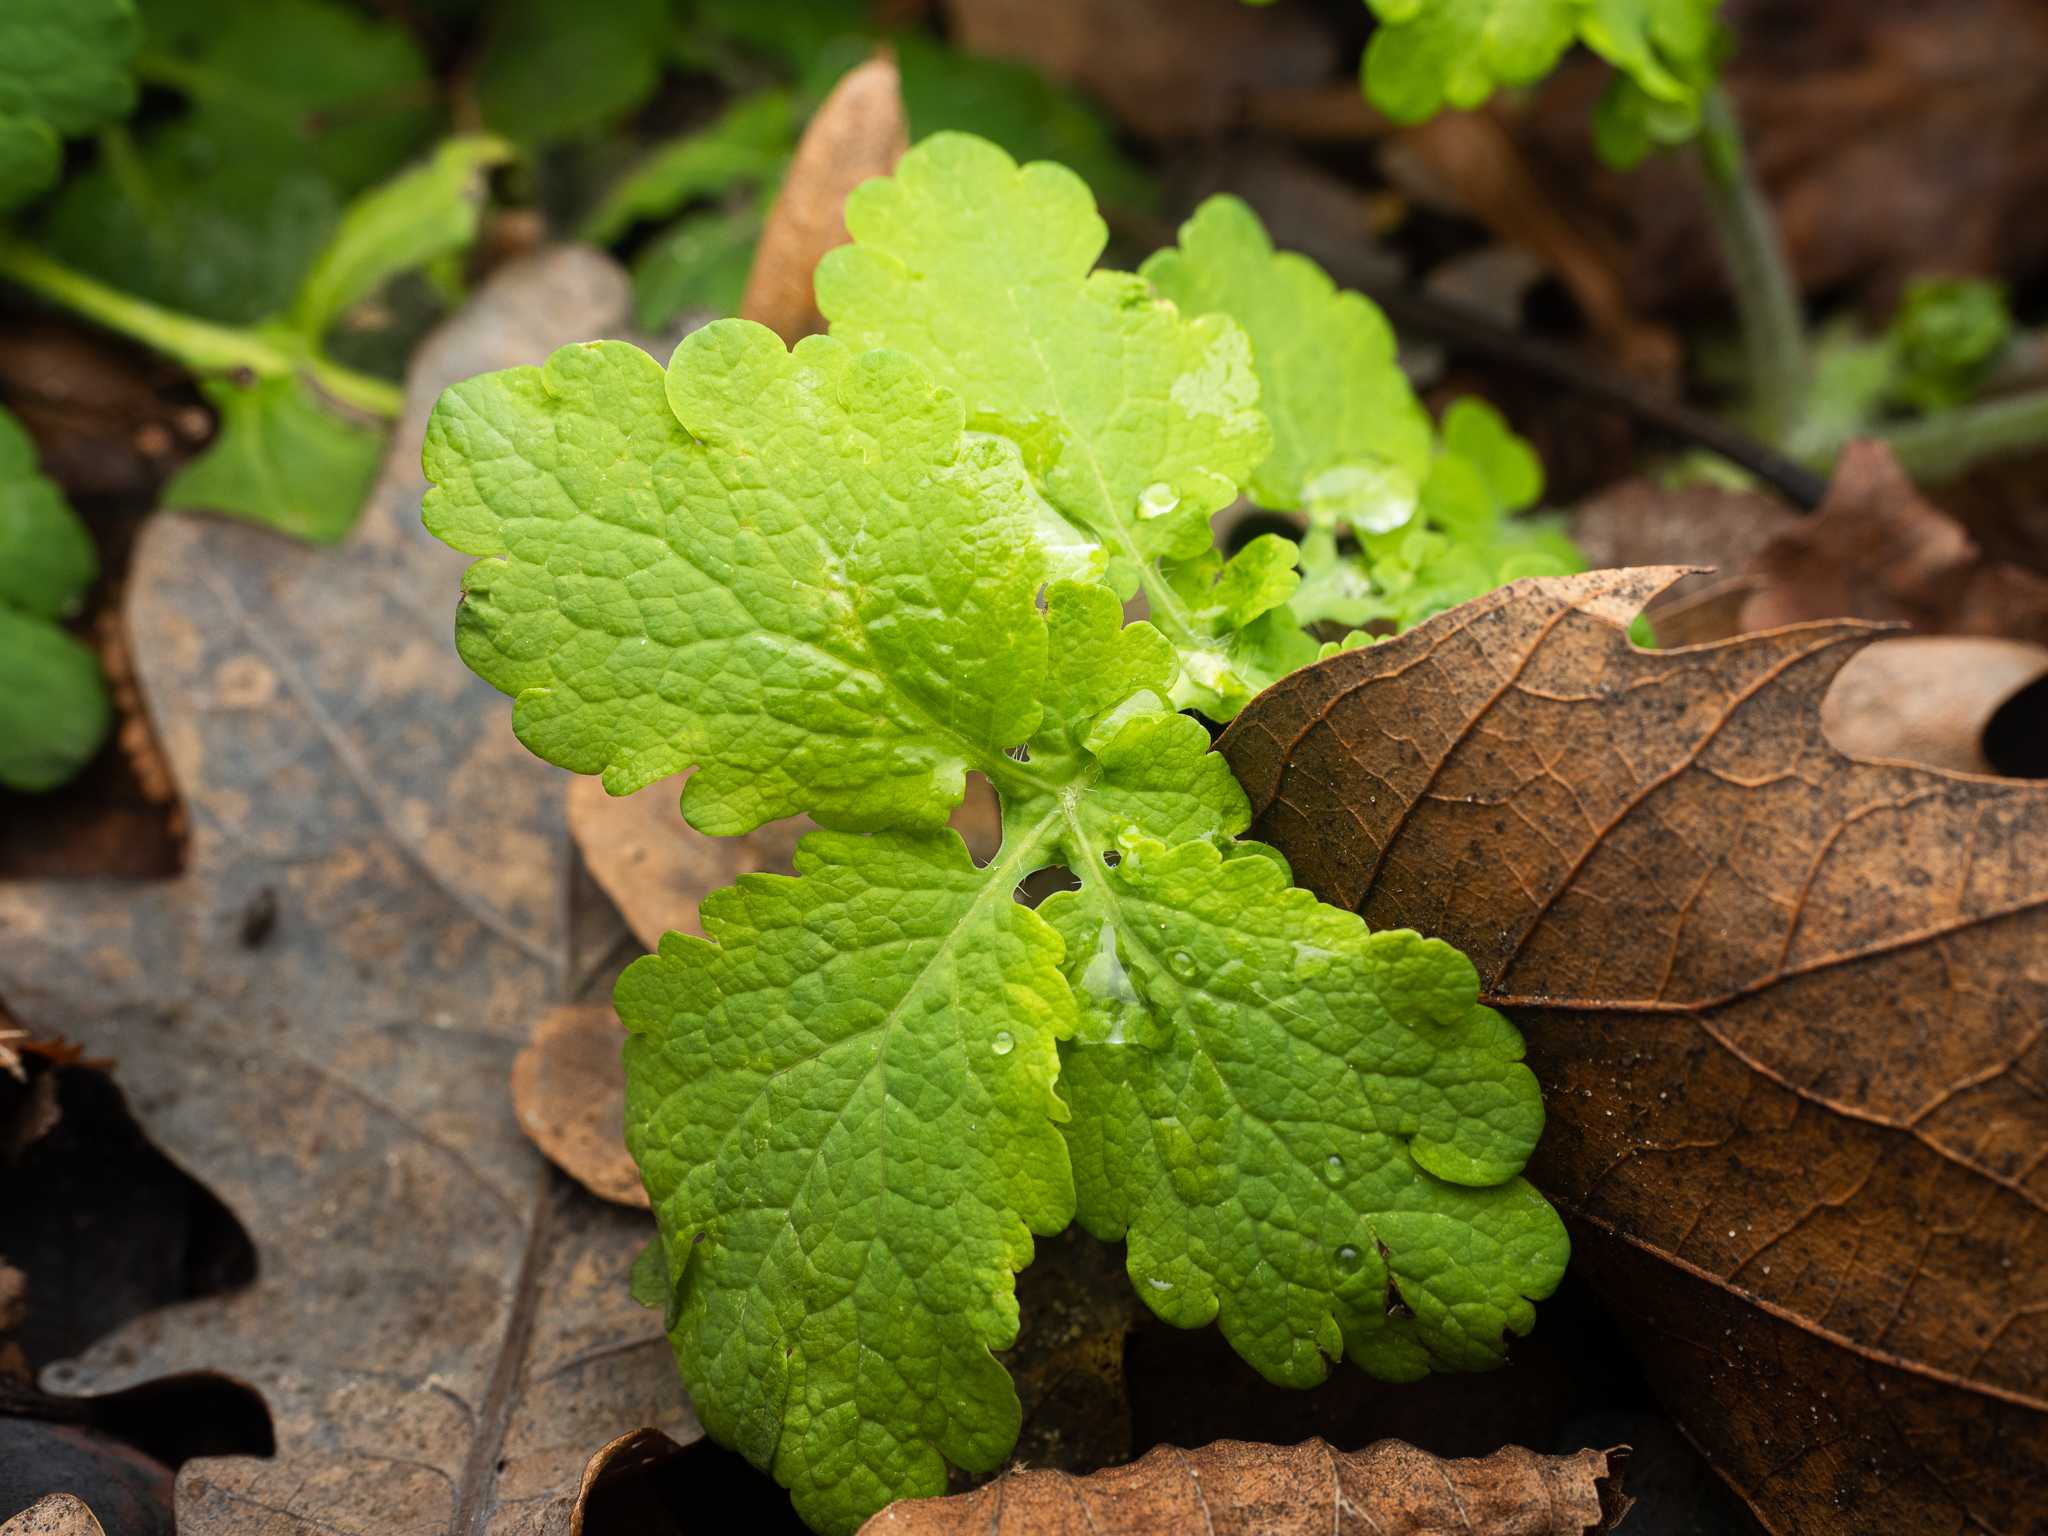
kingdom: Plantae
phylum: Tracheophyta
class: Magnoliopsida
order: Ranunculales
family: Papaveraceae
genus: Chelidonium
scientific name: Chelidonium majus
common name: Greater celandine
